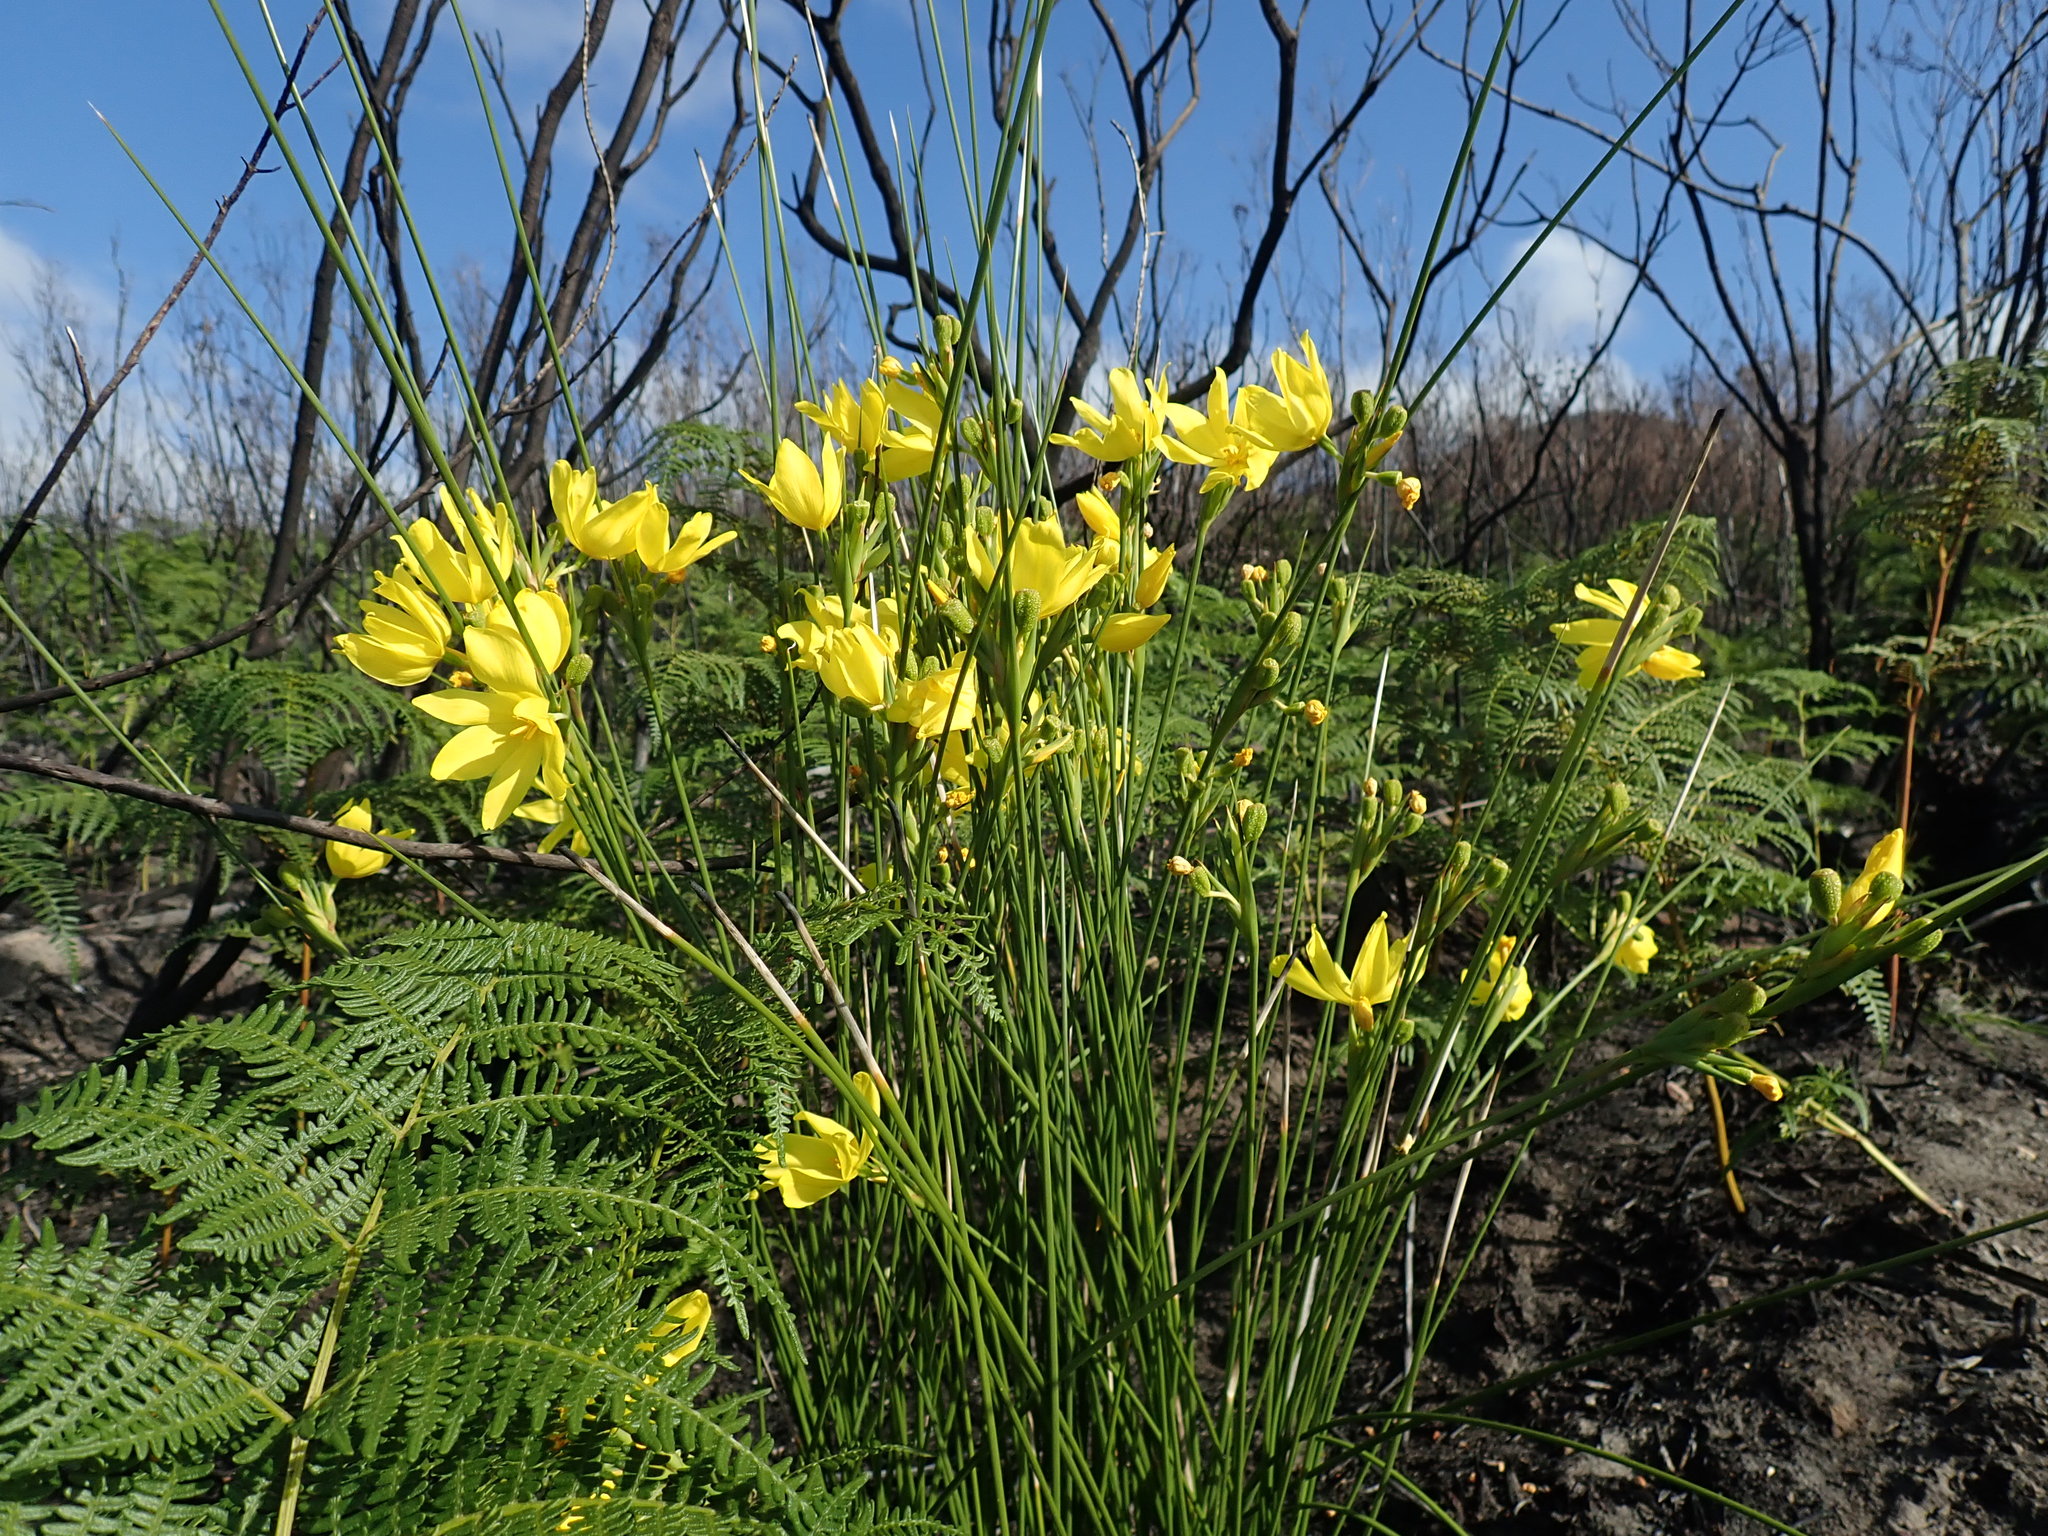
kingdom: Plantae
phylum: Tracheophyta
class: Liliopsida
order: Asparagales
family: Iridaceae
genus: Bobartia
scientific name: Bobartia aphylla
